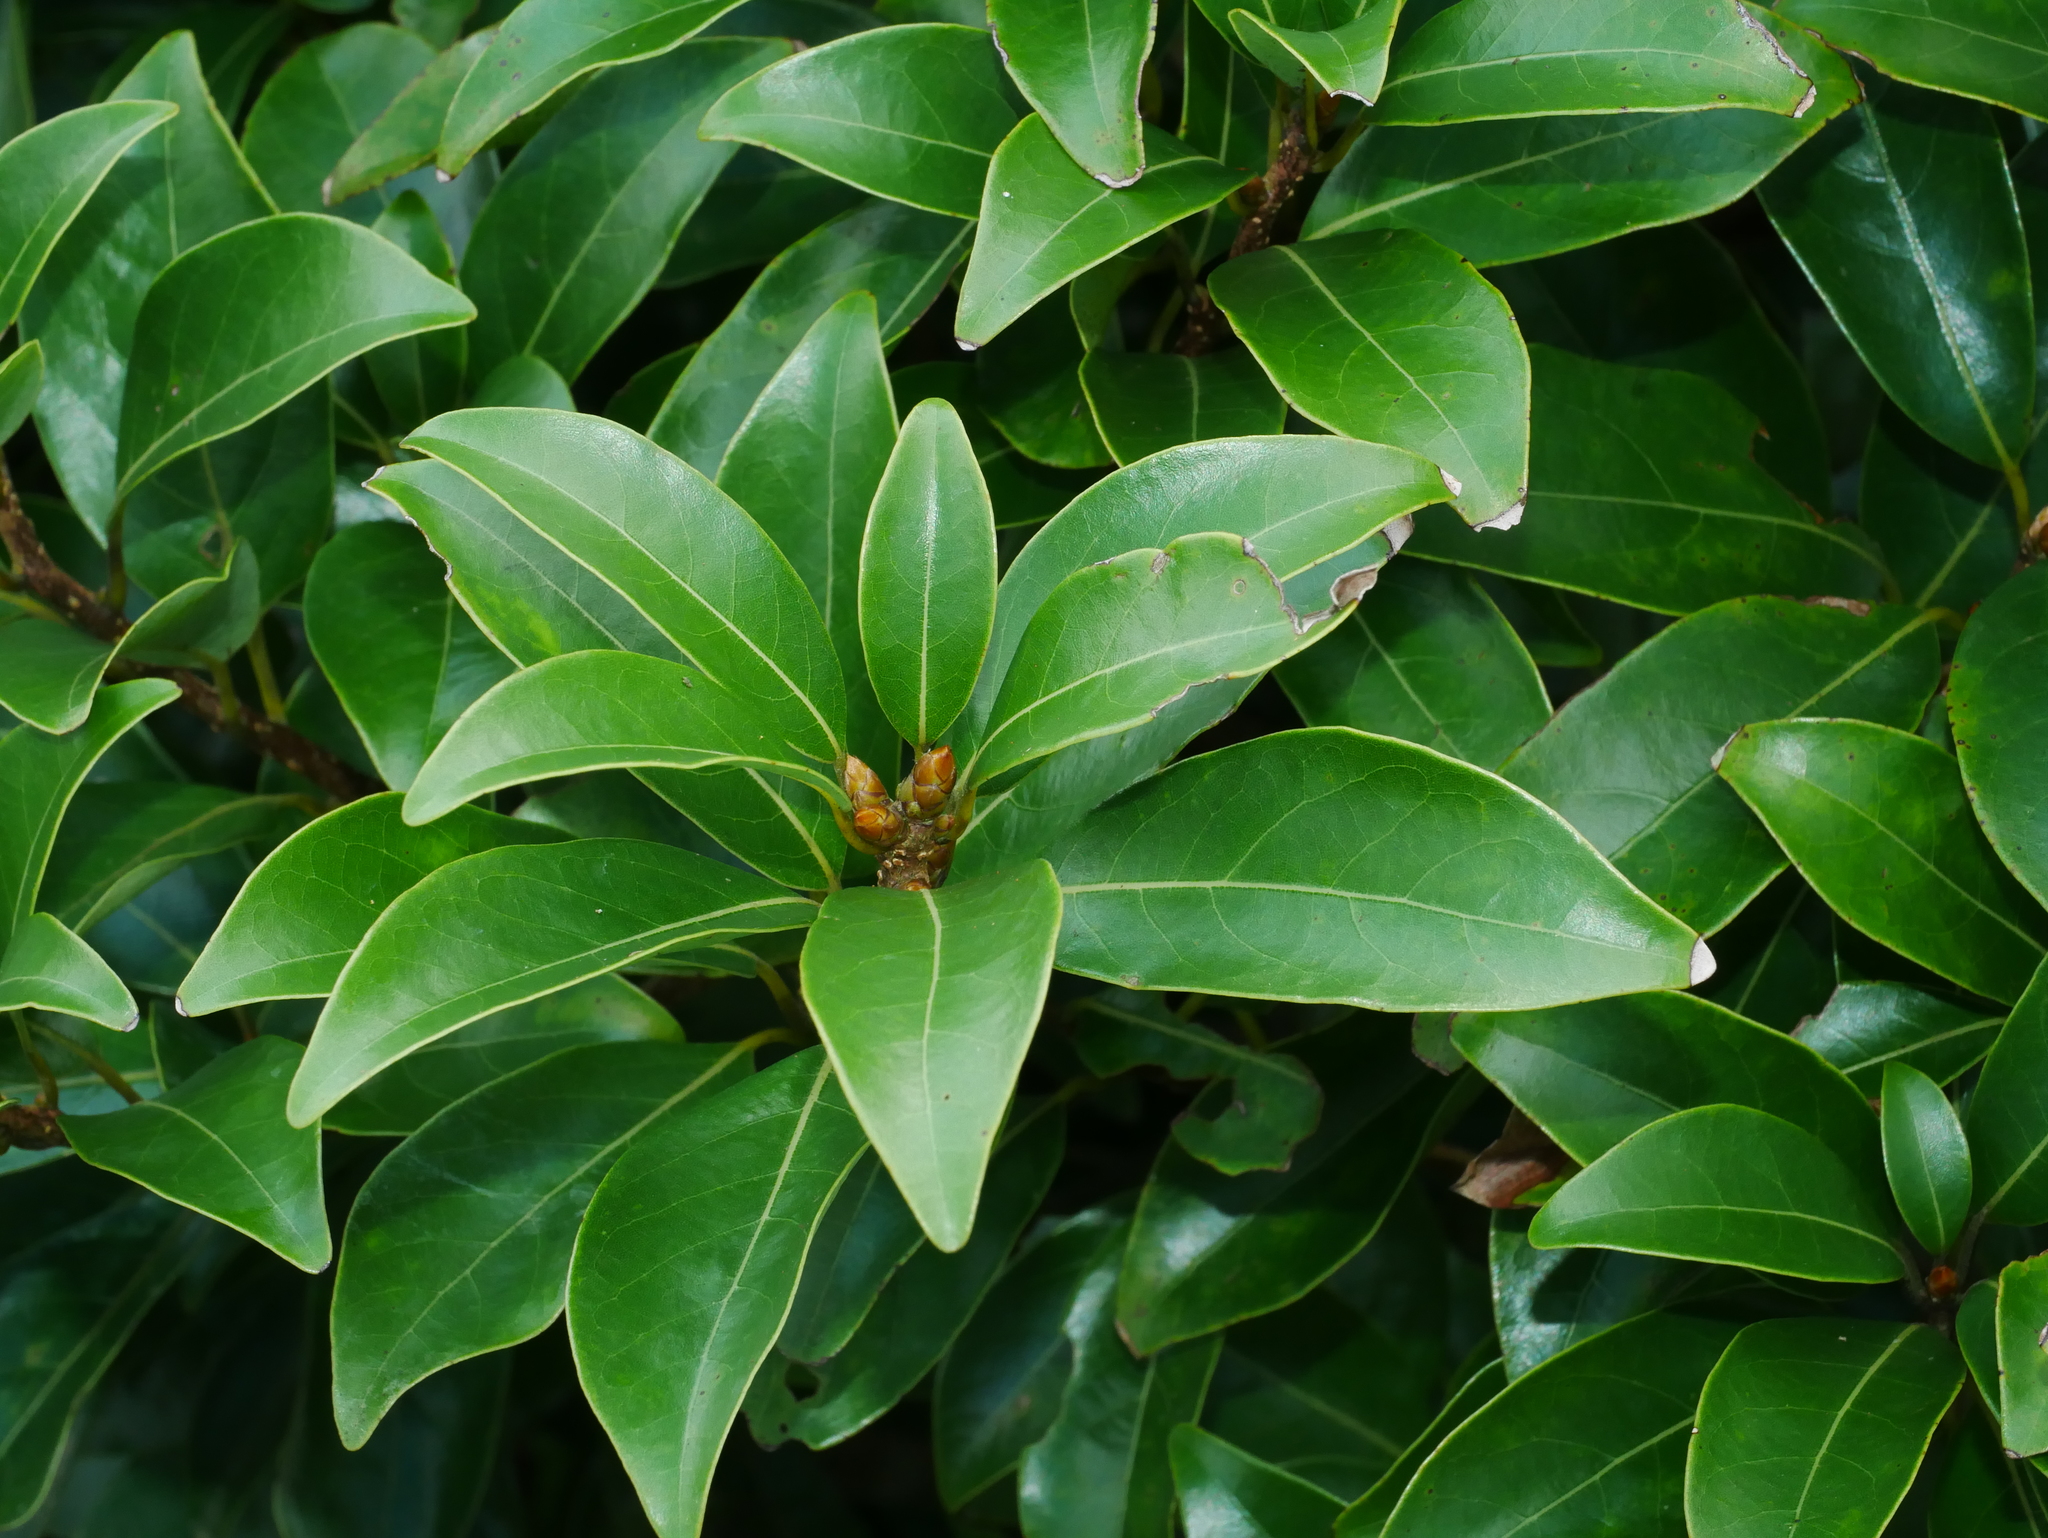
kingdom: Plantae
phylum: Tracheophyta
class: Magnoliopsida
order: Laurales
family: Lauraceae
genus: Litsea
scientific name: Litsea coreana
